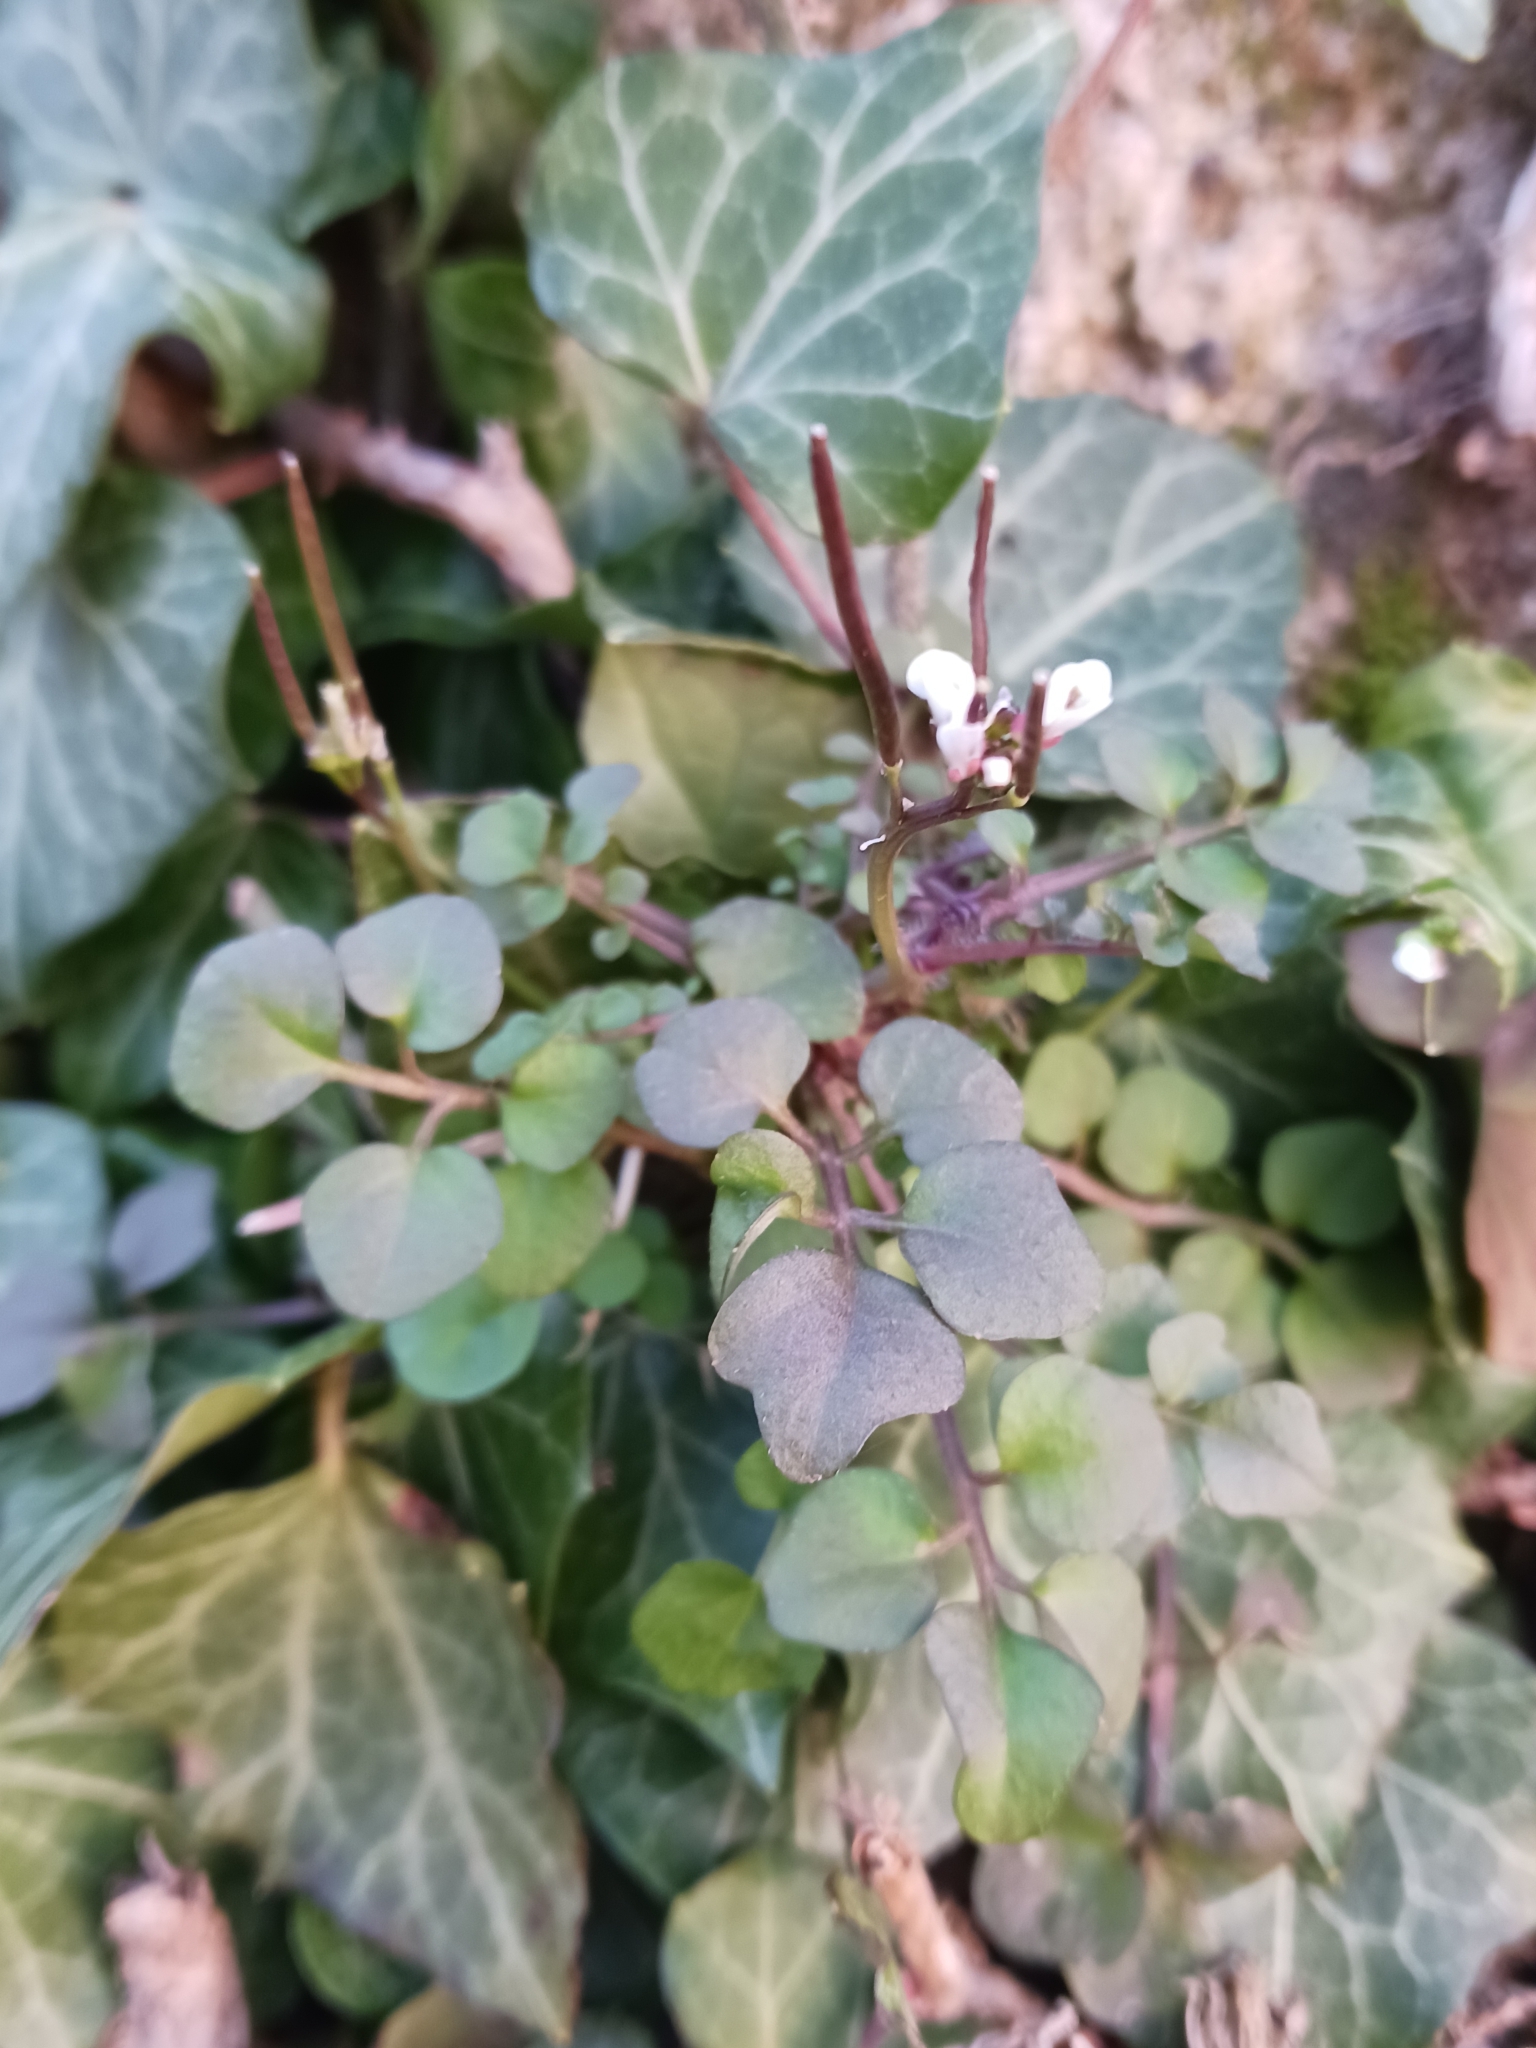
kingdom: Plantae
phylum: Tracheophyta
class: Magnoliopsida
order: Brassicales
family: Brassicaceae
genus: Cardamine
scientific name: Cardamine hirsuta
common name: Hairy bittercress
